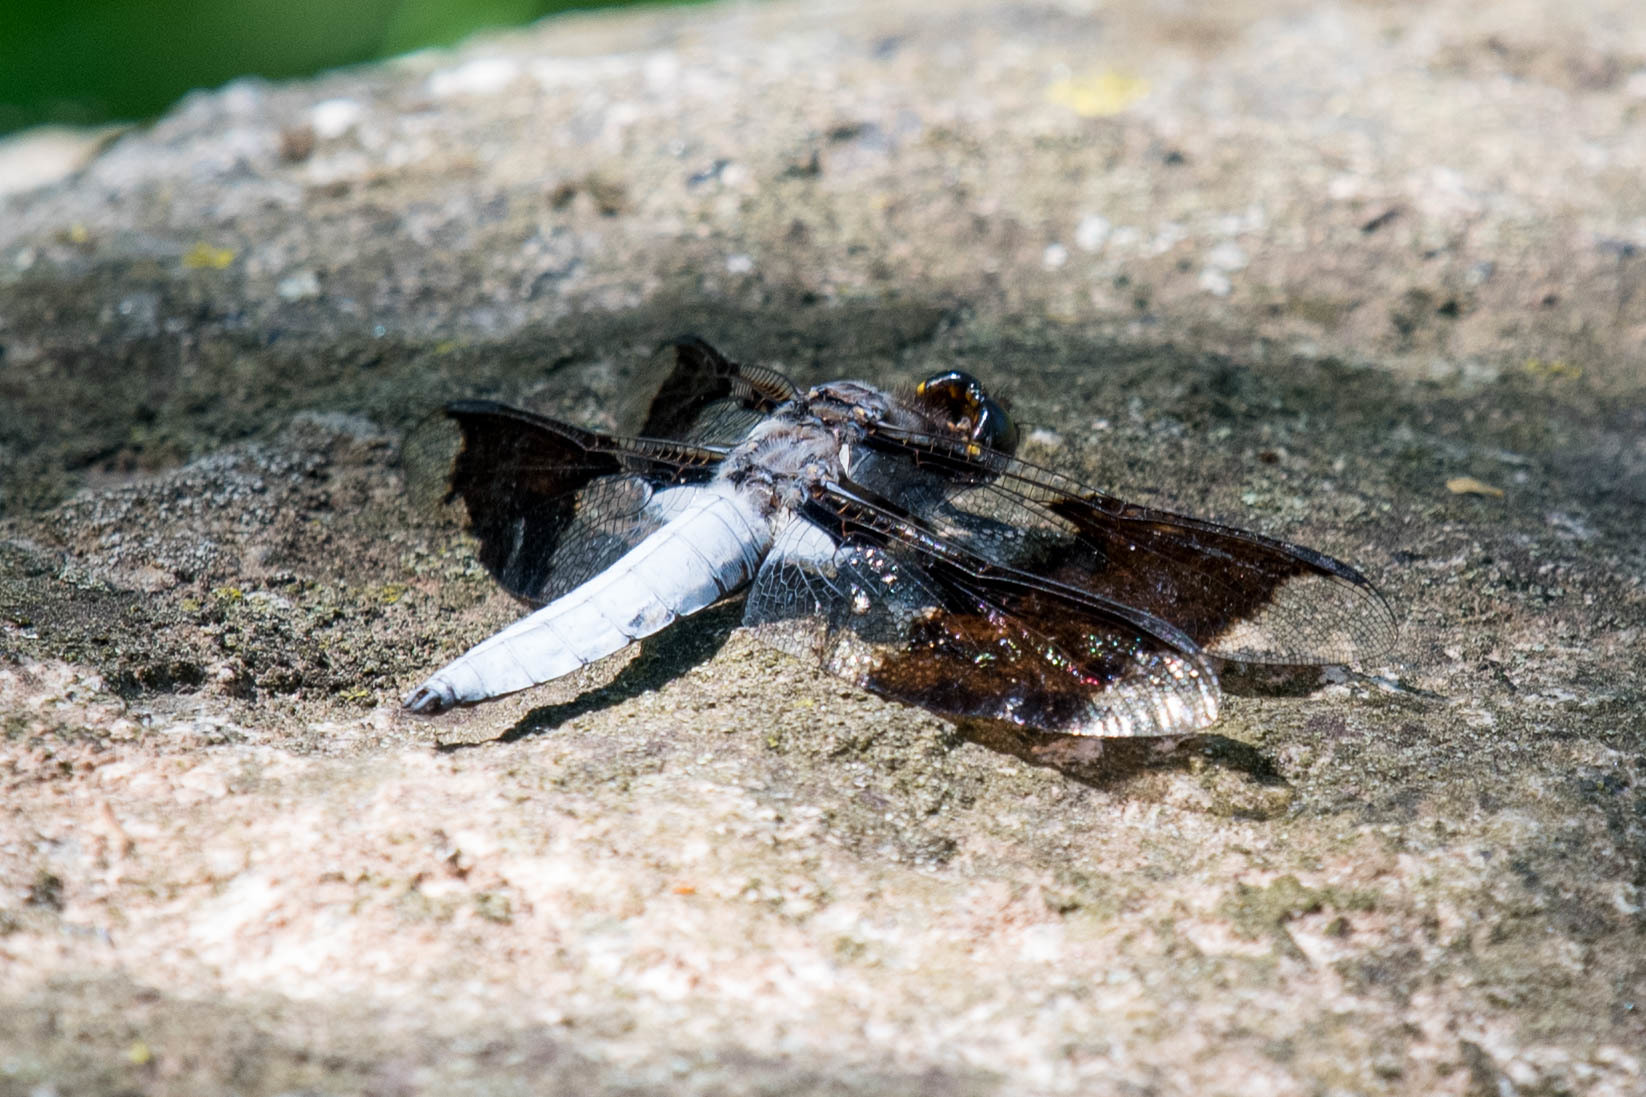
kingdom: Animalia
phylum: Arthropoda
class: Insecta
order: Odonata
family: Libellulidae
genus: Plathemis
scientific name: Plathemis lydia
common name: Common whitetail
